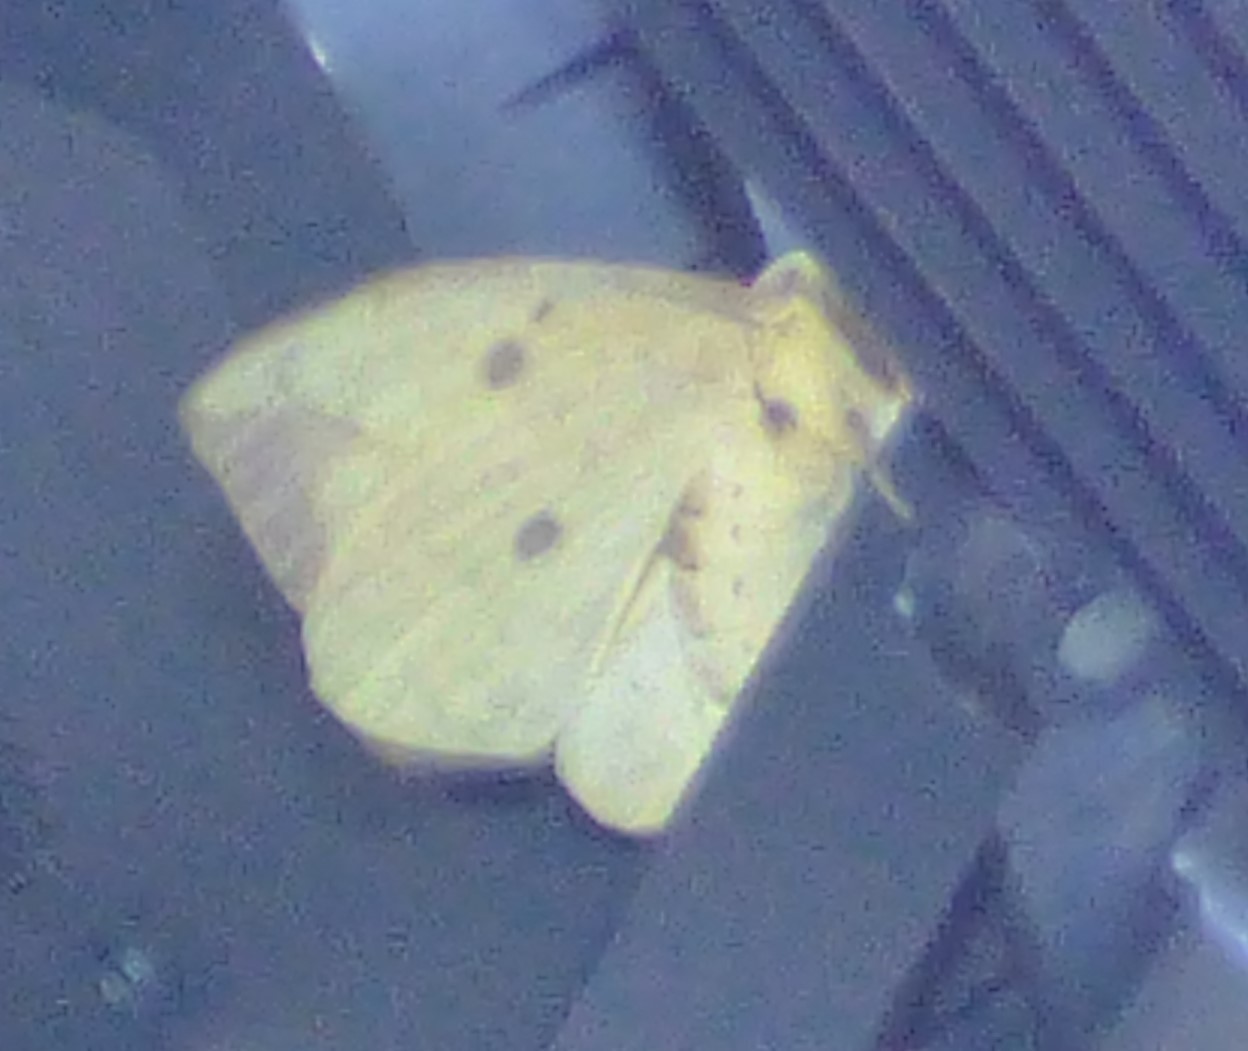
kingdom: Animalia
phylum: Arthropoda
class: Insecta
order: Lepidoptera
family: Saturniidae
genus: Eacles
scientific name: Eacles imperialis
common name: Imperial moth
